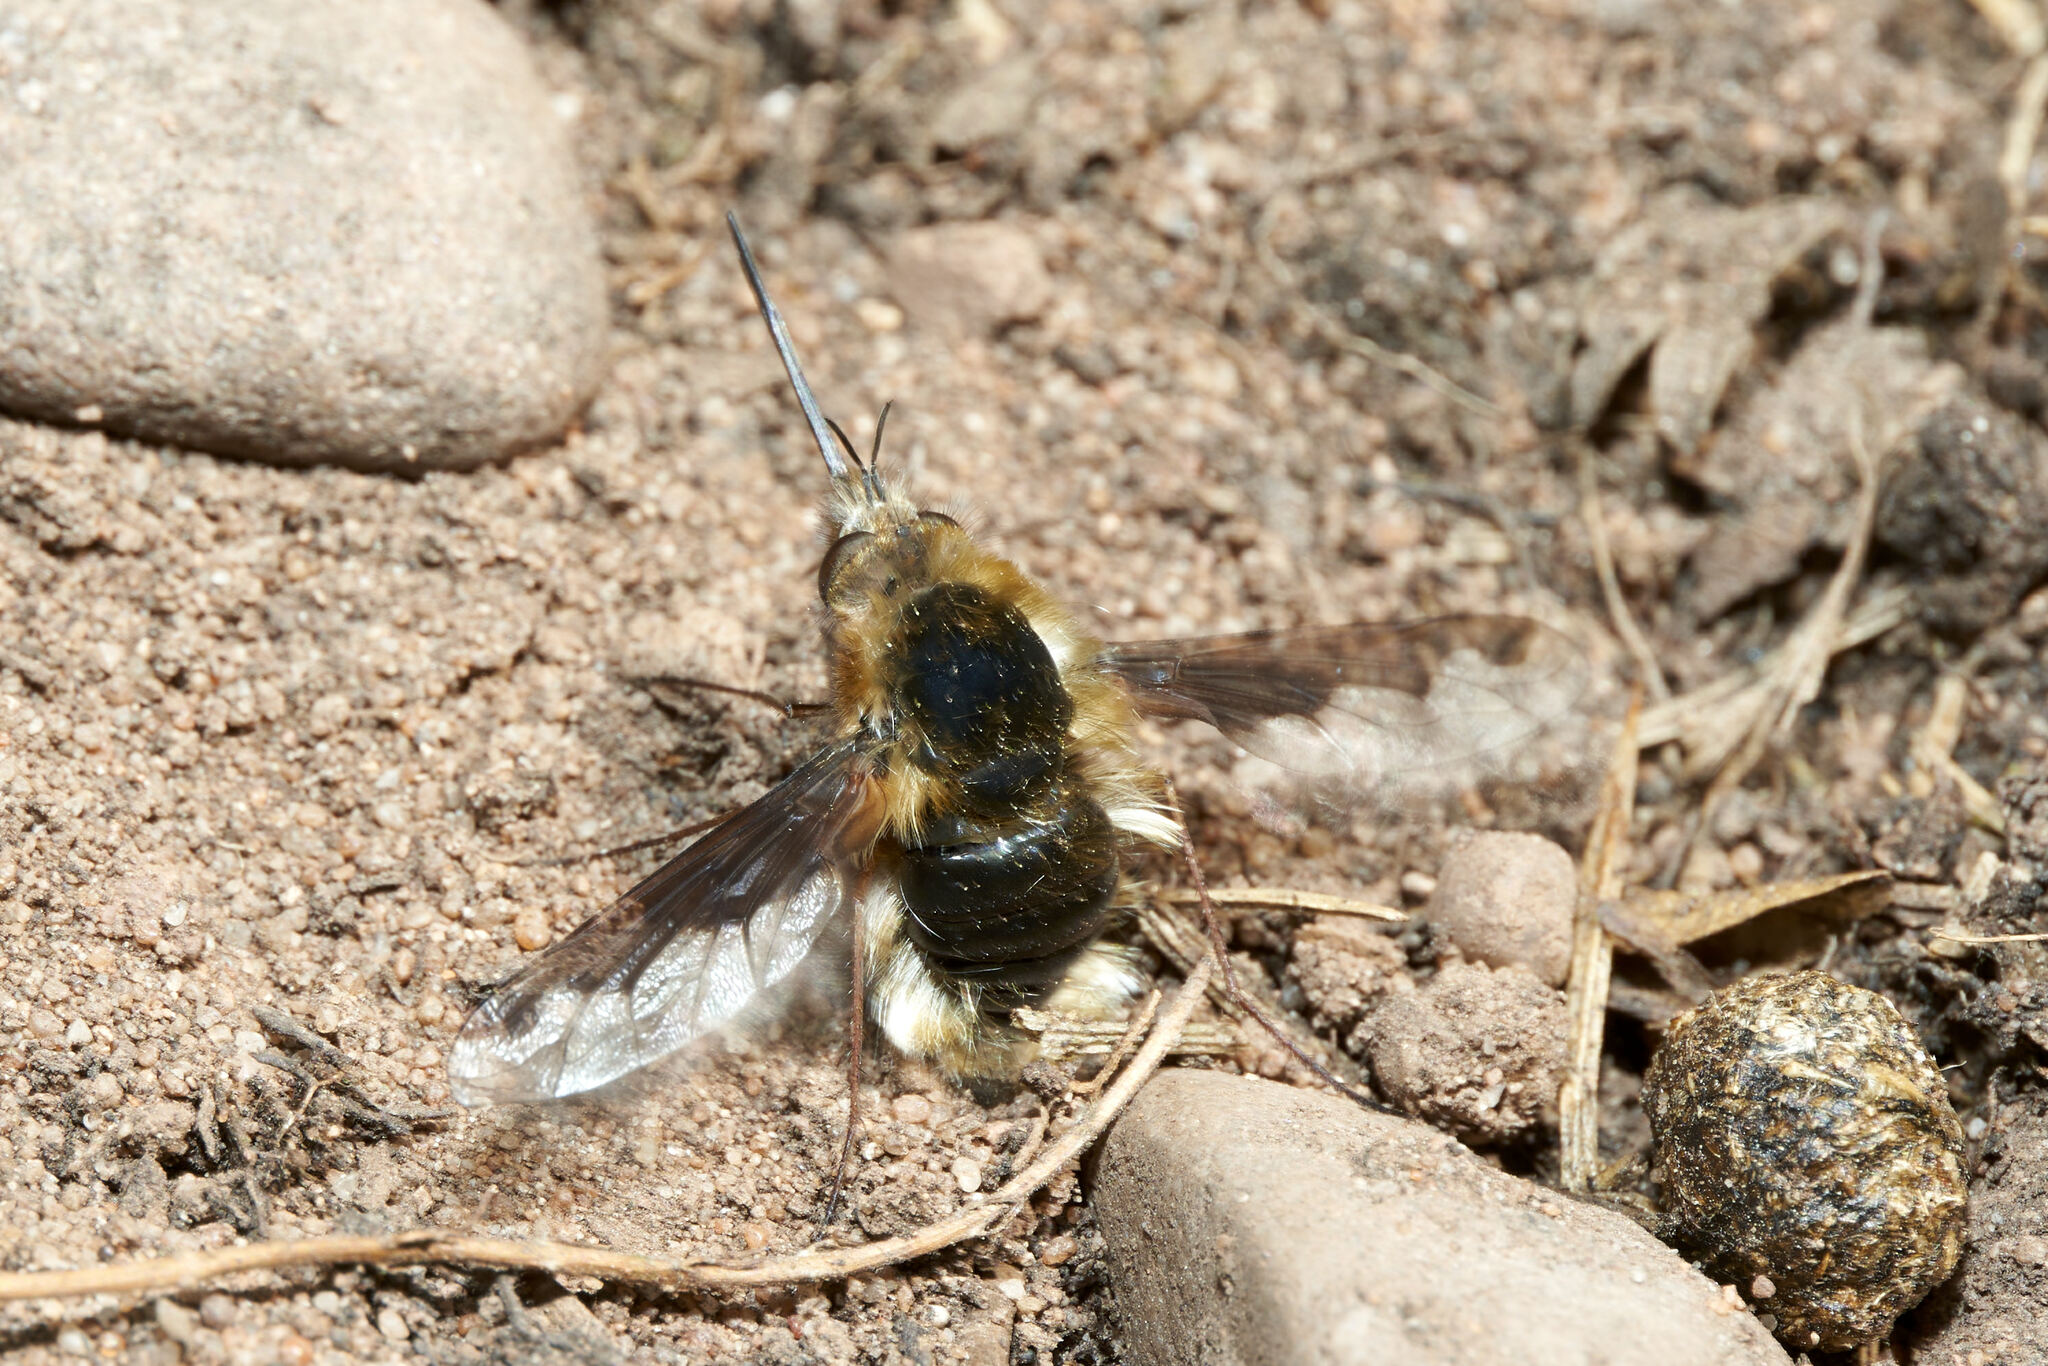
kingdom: Animalia
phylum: Arthropoda
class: Insecta
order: Diptera
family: Bombyliidae
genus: Bombylius
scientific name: Bombylius major
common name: Bee fly
